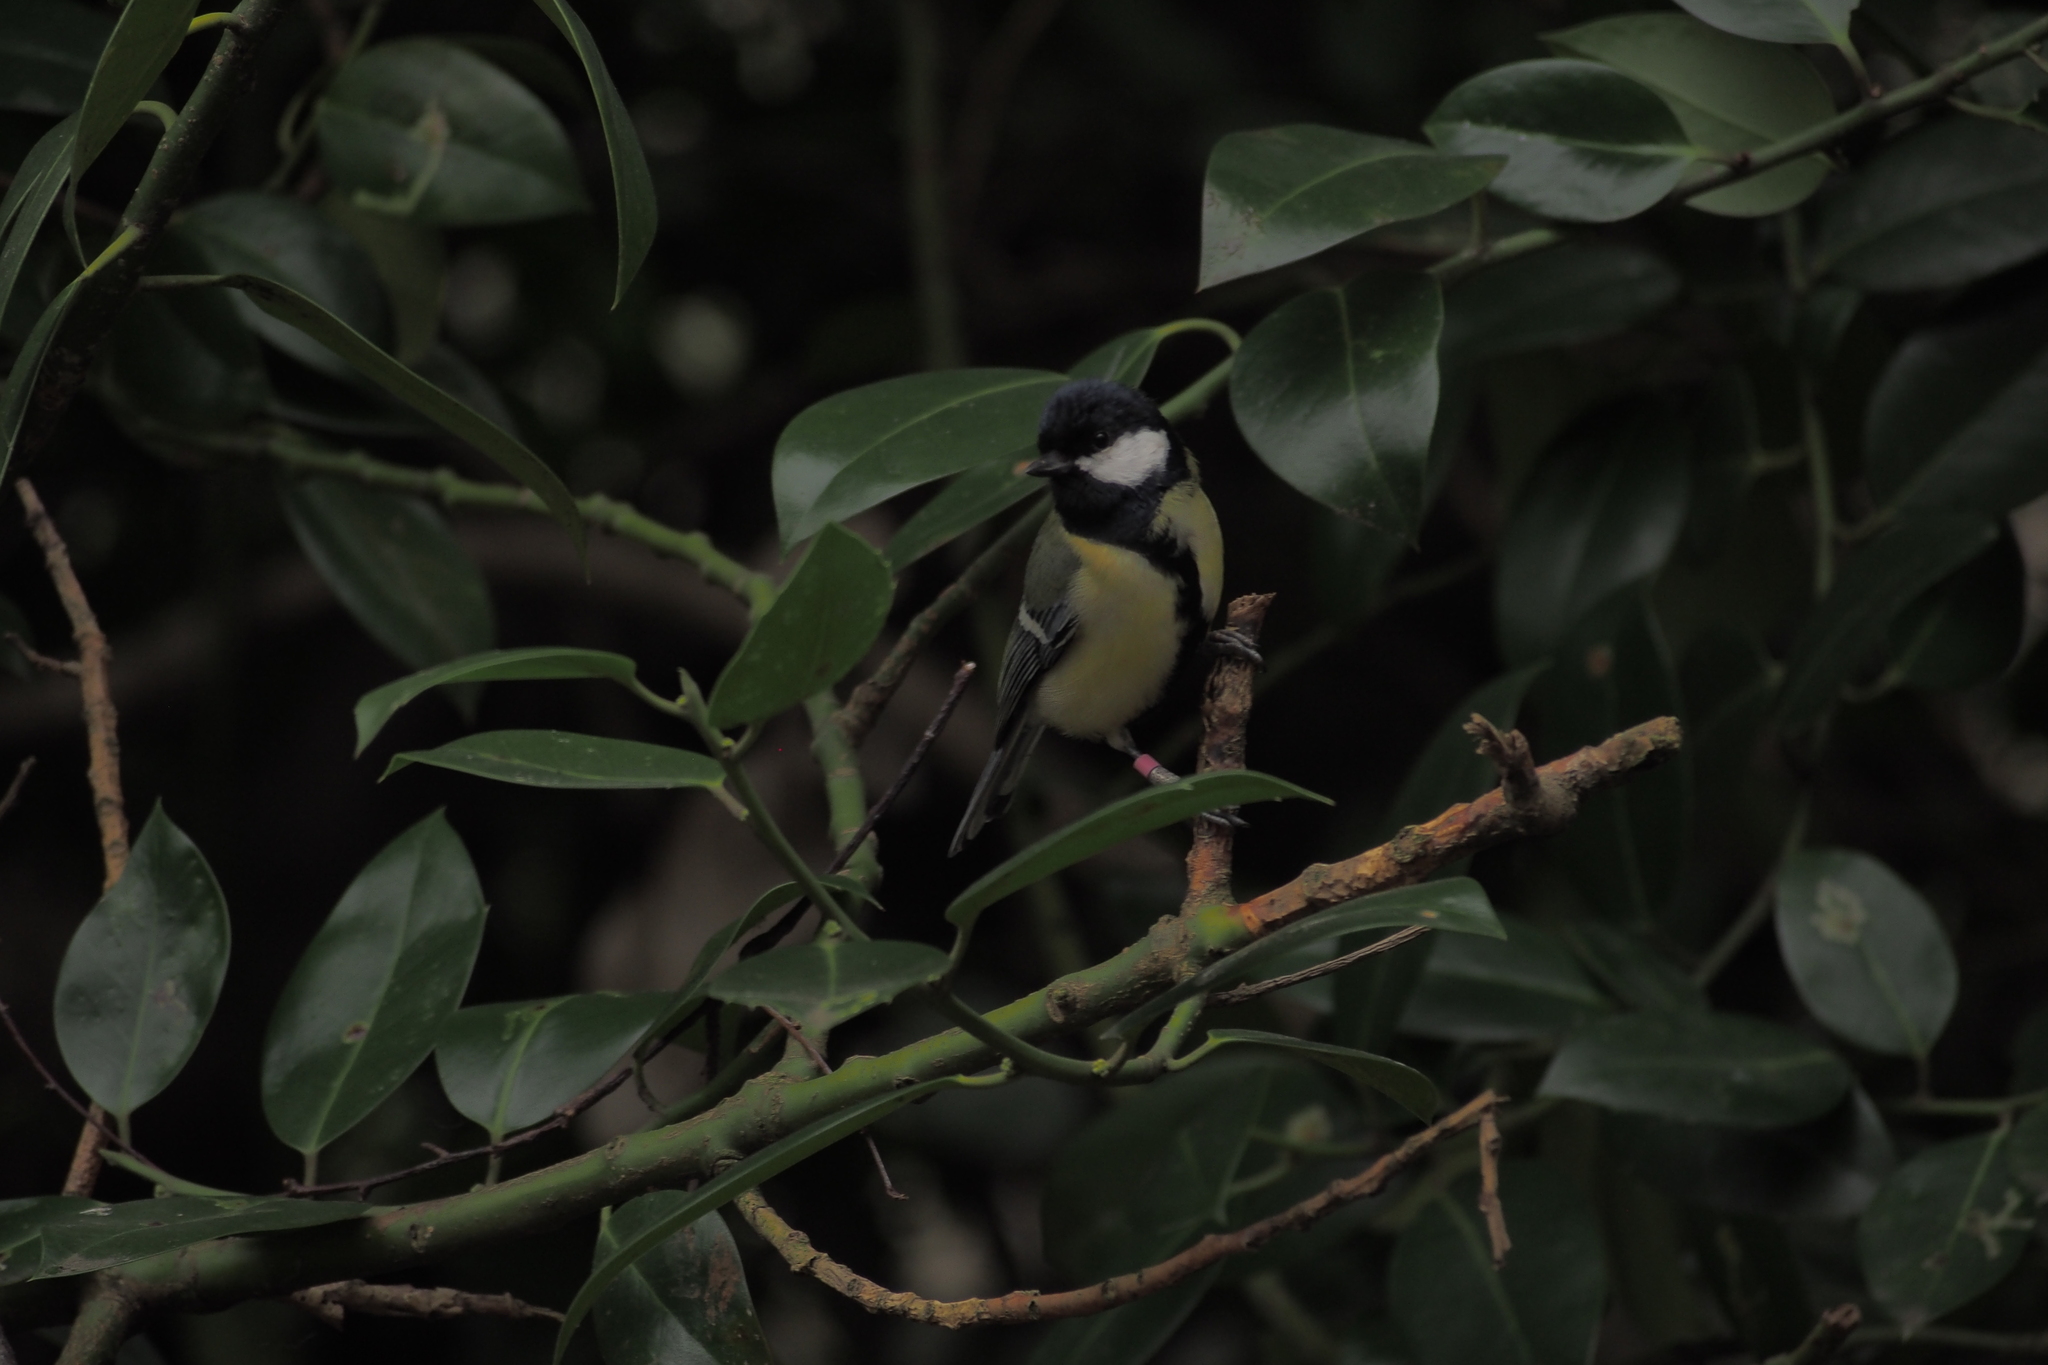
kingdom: Animalia
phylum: Chordata
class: Aves
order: Passeriformes
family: Paridae
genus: Parus
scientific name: Parus major
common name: Great tit
